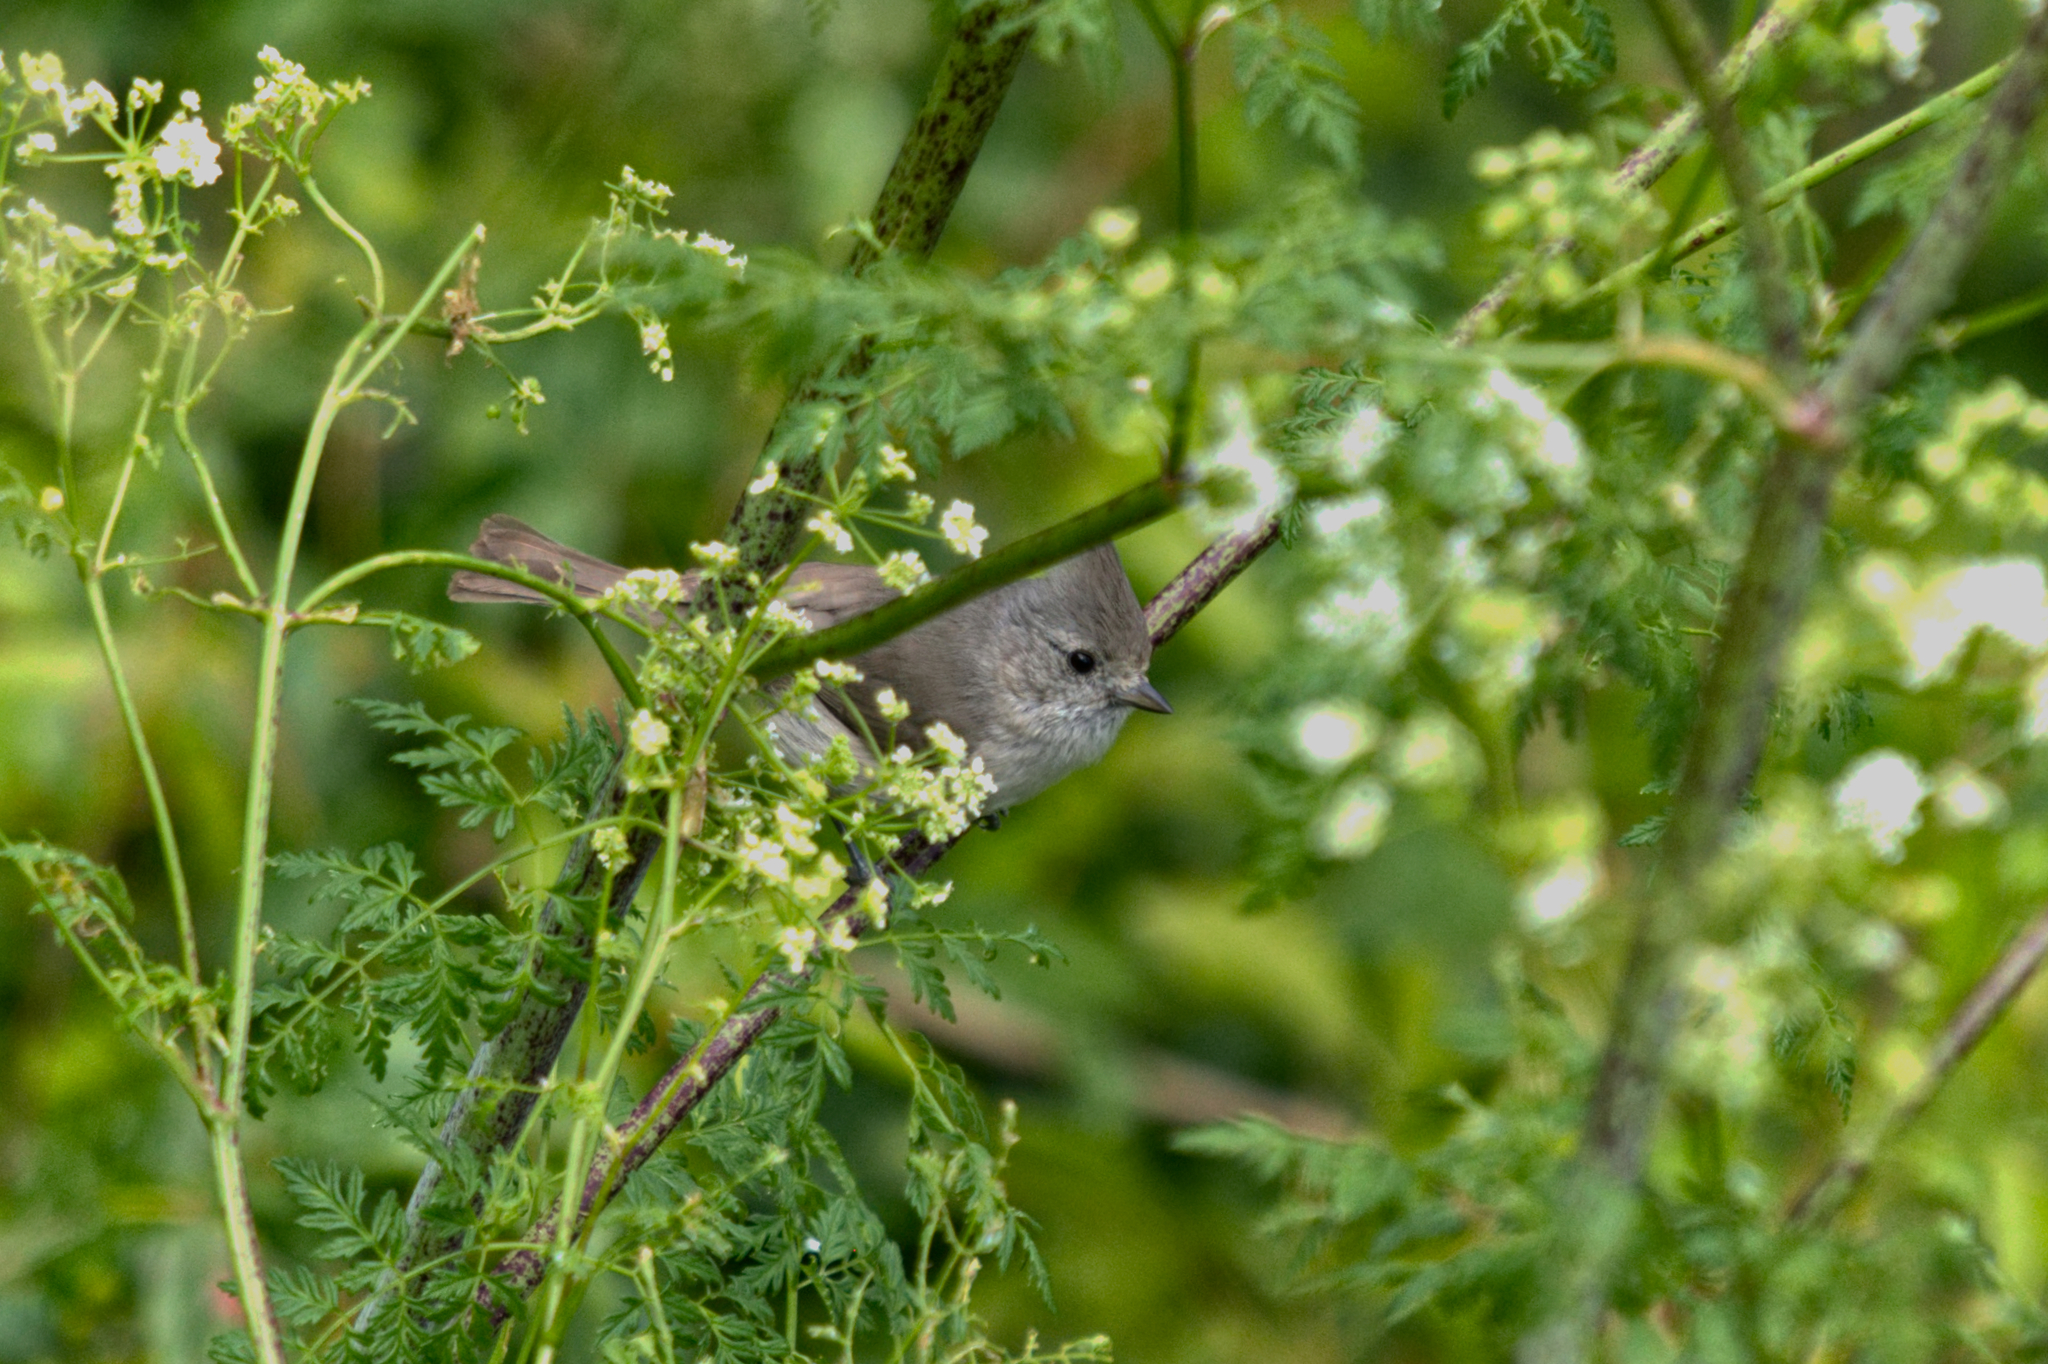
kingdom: Animalia
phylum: Chordata
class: Aves
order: Passeriformes
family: Paridae
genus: Baeolophus
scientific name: Baeolophus inornatus
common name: Oak titmouse
